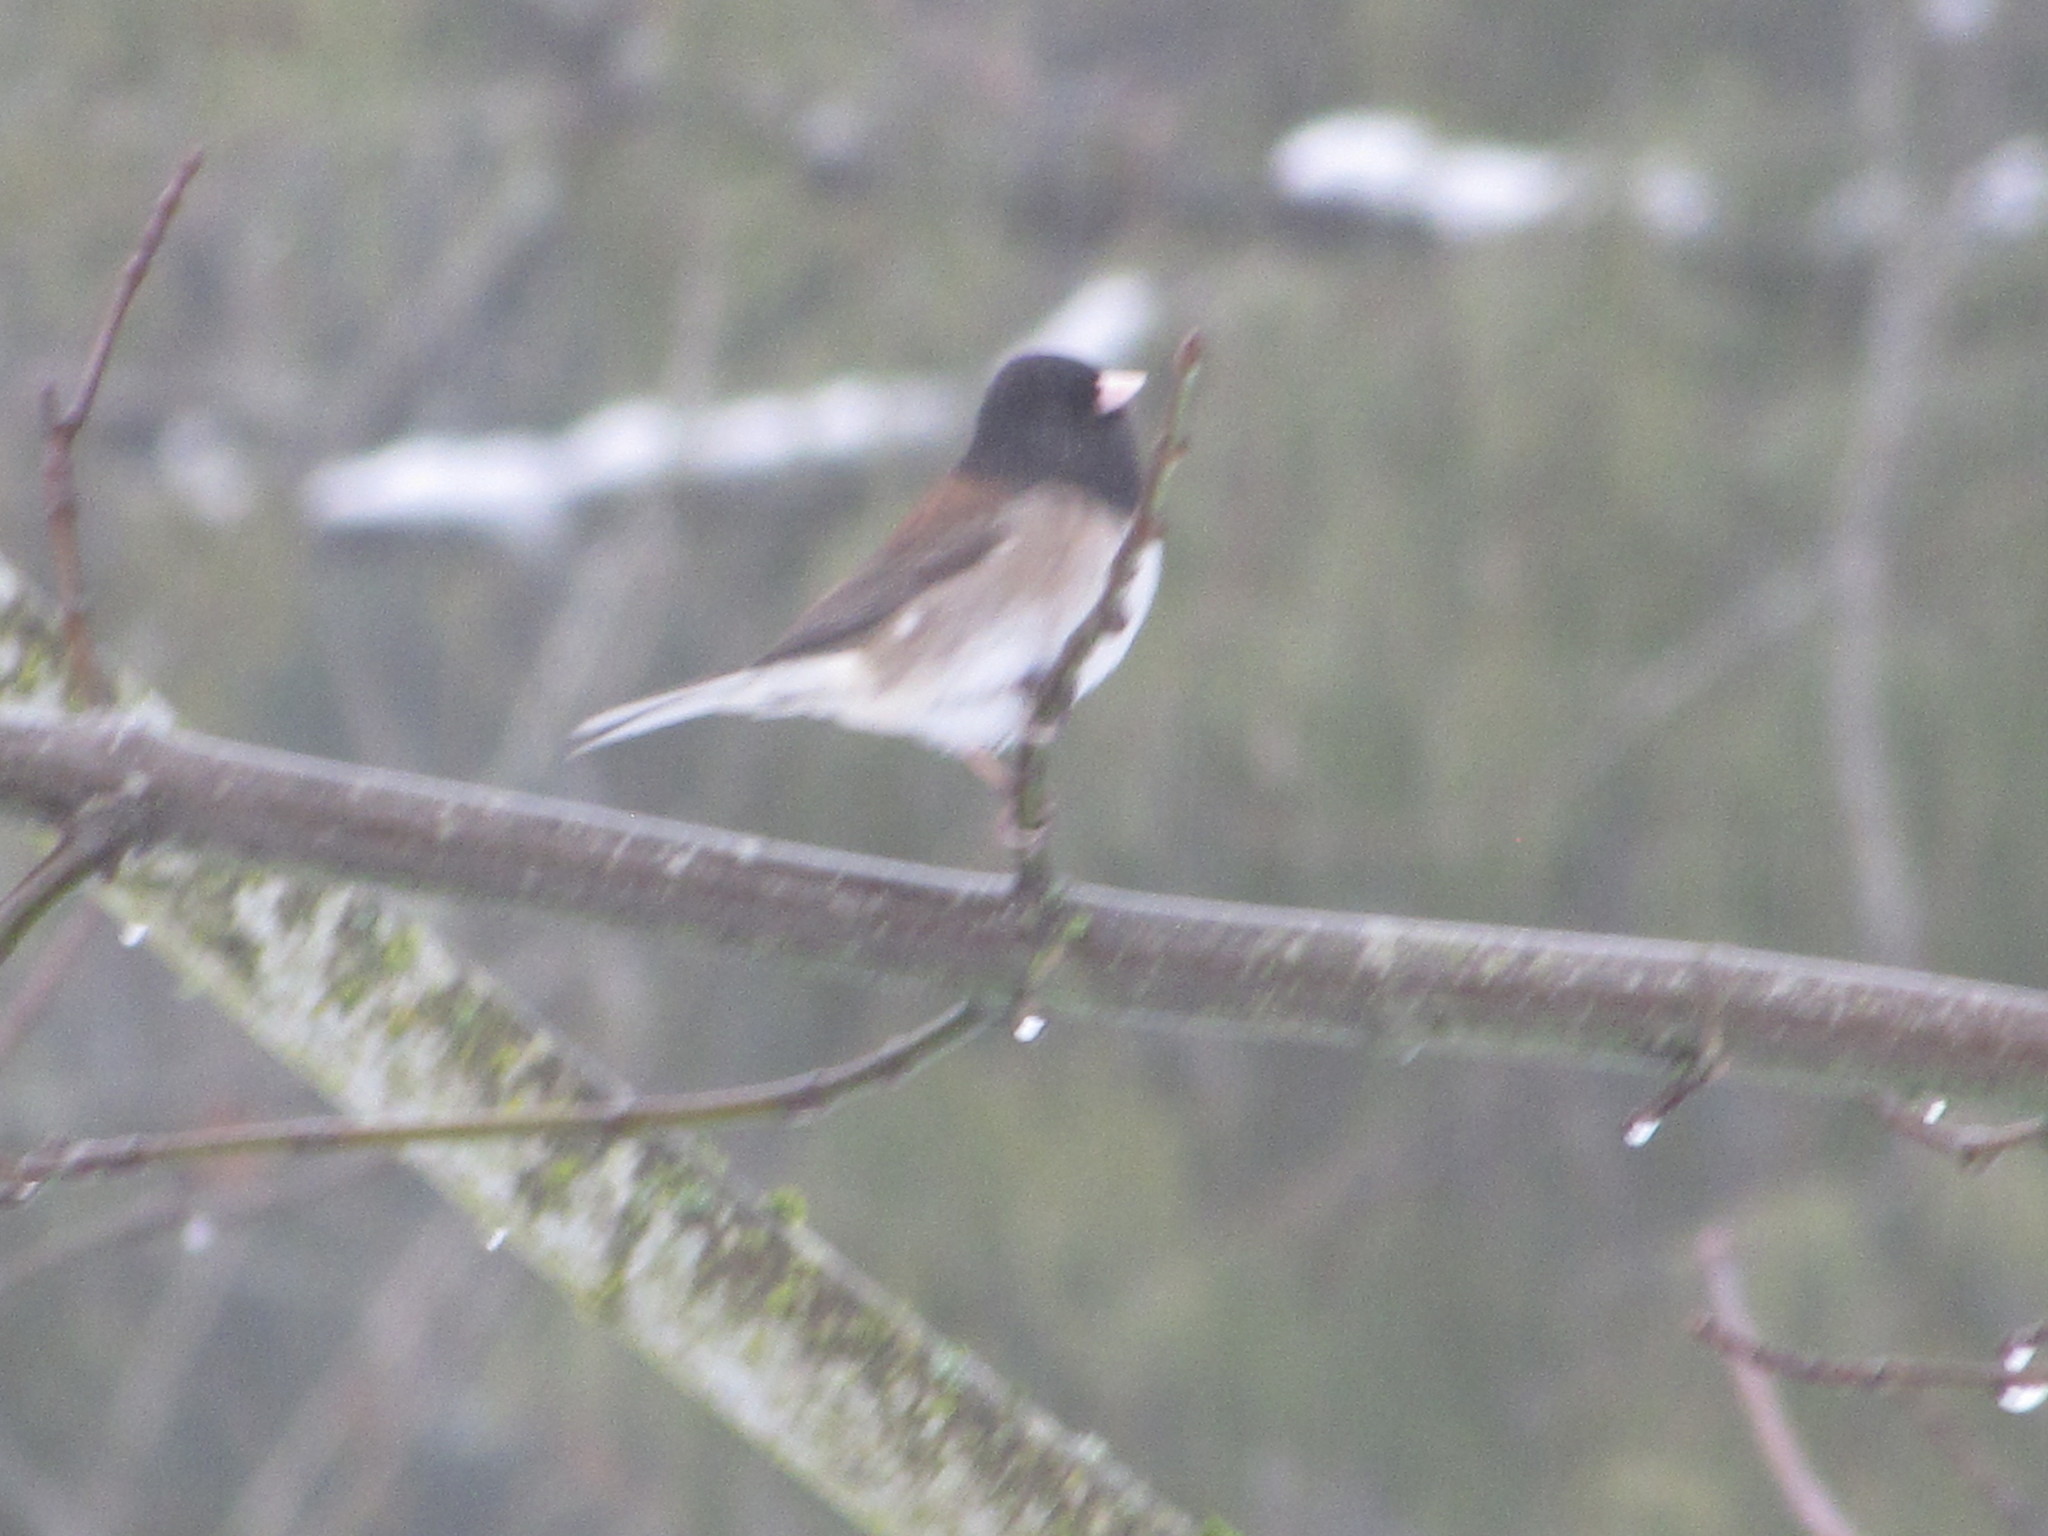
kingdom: Animalia
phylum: Chordata
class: Aves
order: Passeriformes
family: Passerellidae
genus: Junco
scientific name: Junco hyemalis
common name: Dark-eyed junco
